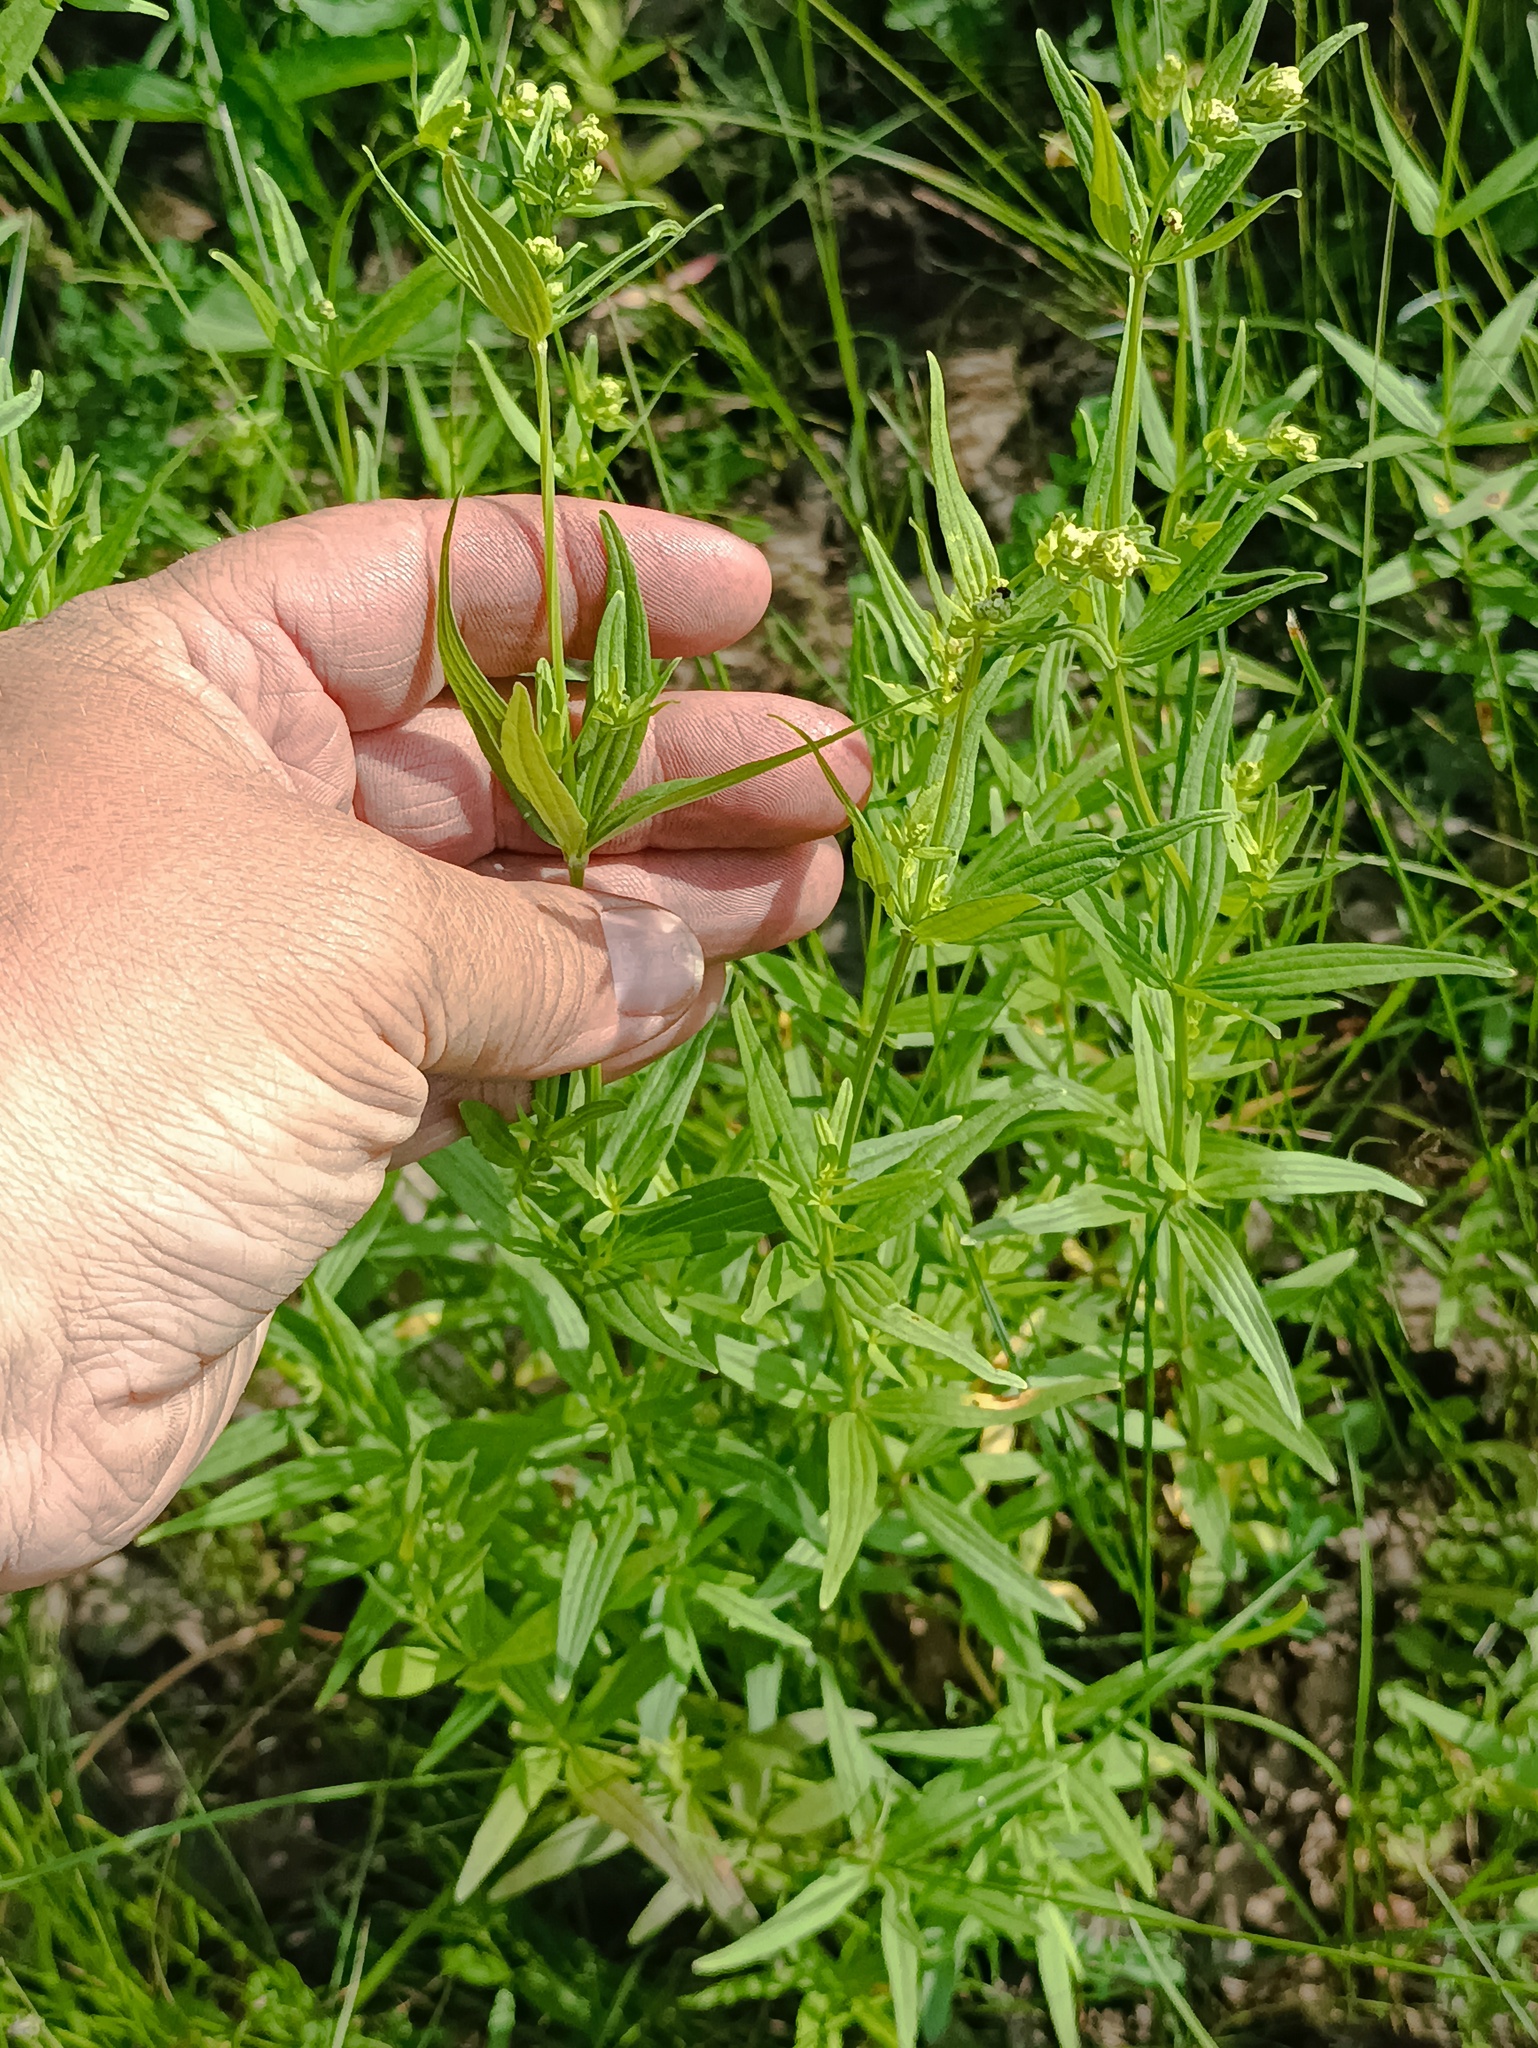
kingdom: Plantae
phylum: Tracheophyta
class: Magnoliopsida
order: Gentianales
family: Rubiaceae
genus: Galium
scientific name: Galium rubioides
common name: European bedstraw
